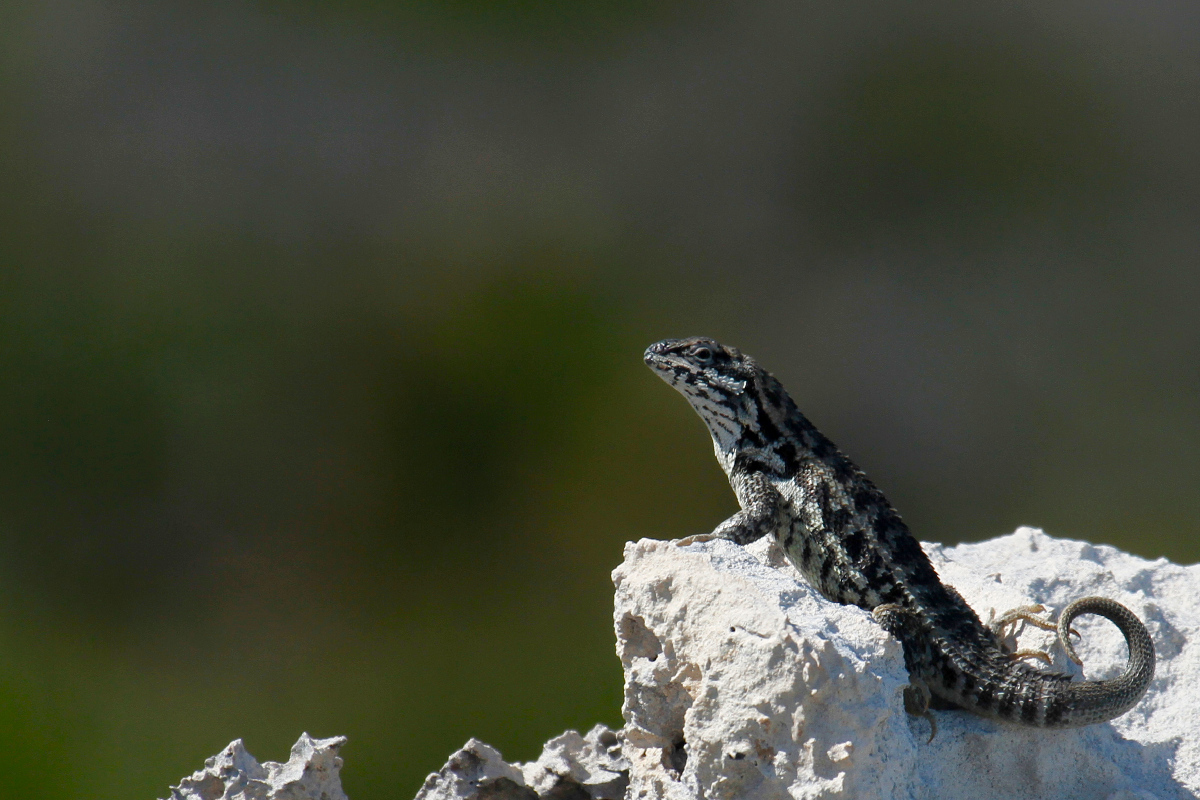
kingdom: Animalia
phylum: Chordata
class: Squamata
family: Leiocephalidae
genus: Leiocephalus
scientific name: Leiocephalus carinatus
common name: Northern curly-tailed lizard
